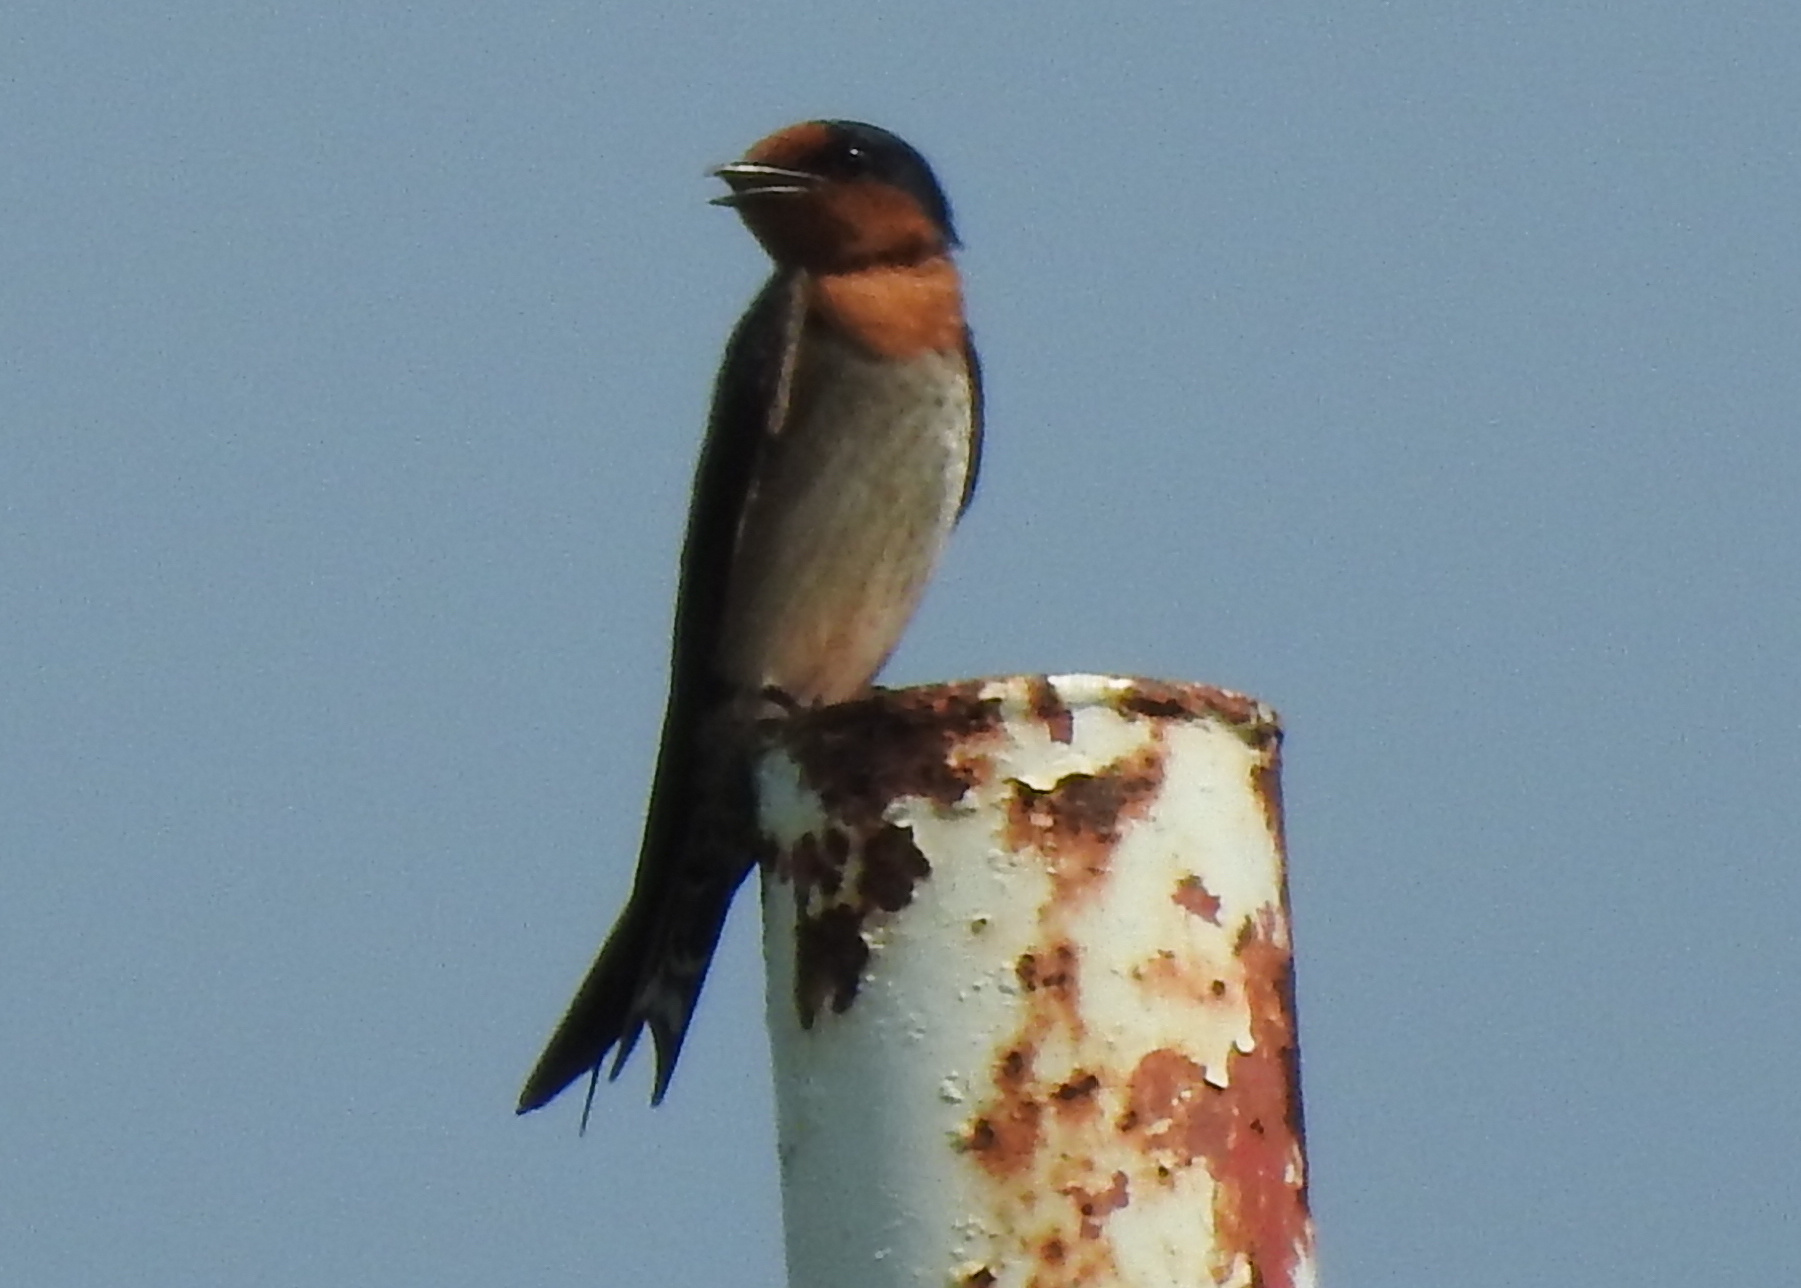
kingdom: Animalia
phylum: Chordata
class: Aves
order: Passeriformes
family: Hirundinidae
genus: Hirundo
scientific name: Hirundo tahitica
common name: Pacific swallow
